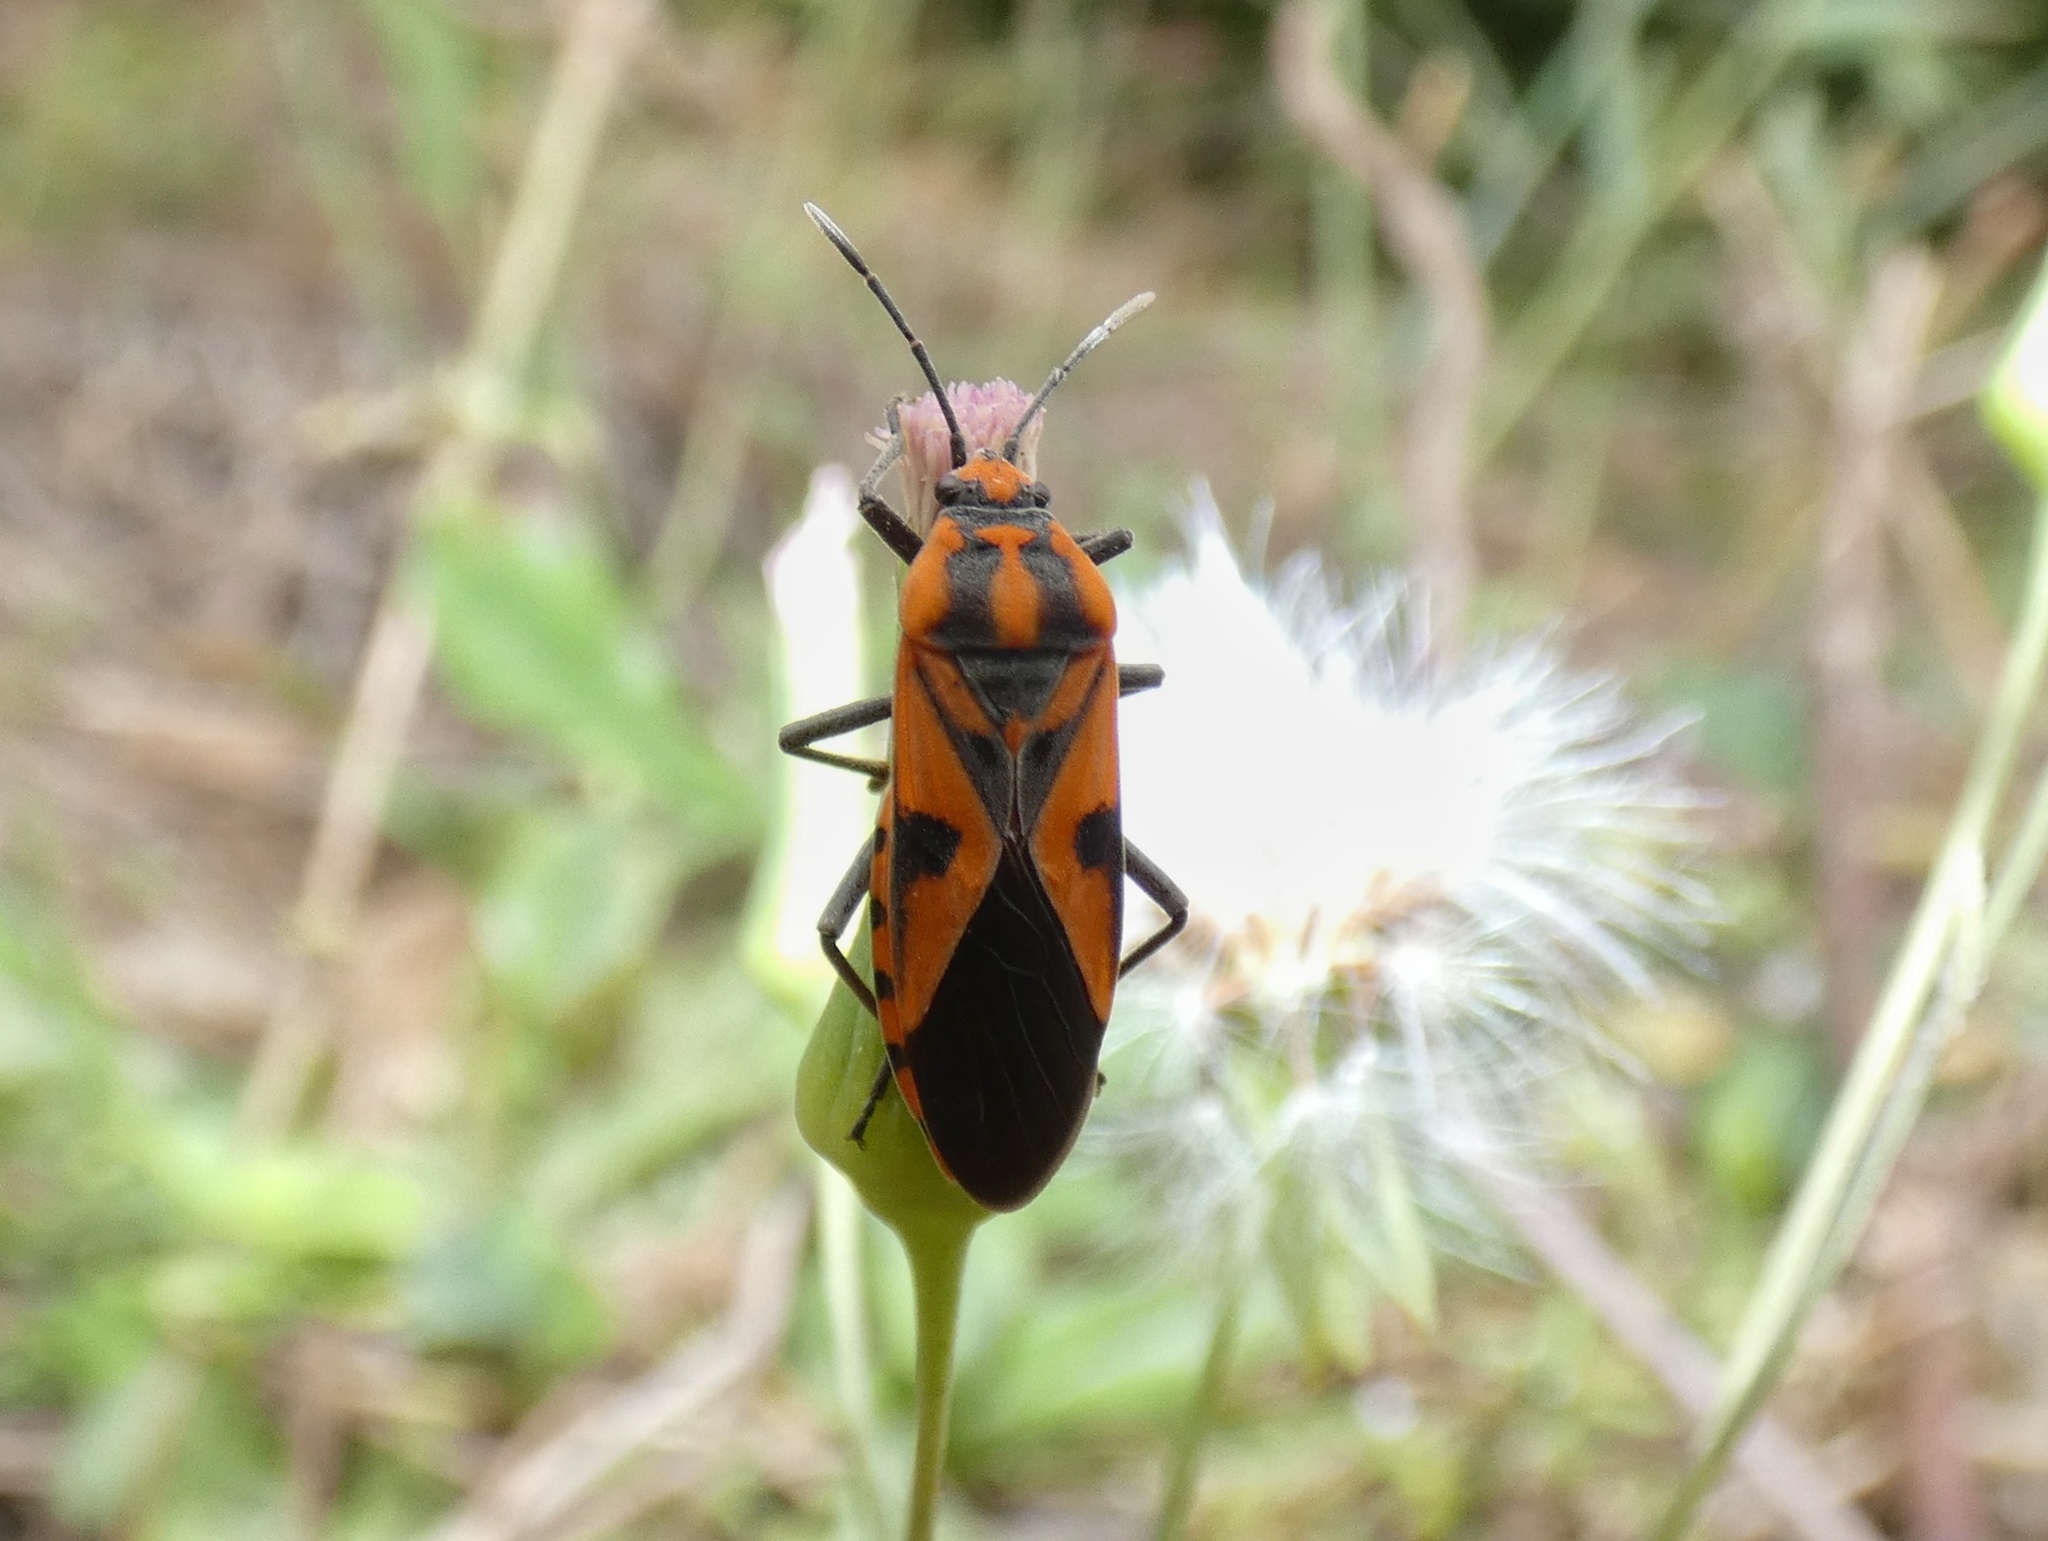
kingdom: Animalia
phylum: Arthropoda
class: Insecta
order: Hemiptera
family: Lygaeidae
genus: Spilostethus
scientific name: Spilostethus hospes
